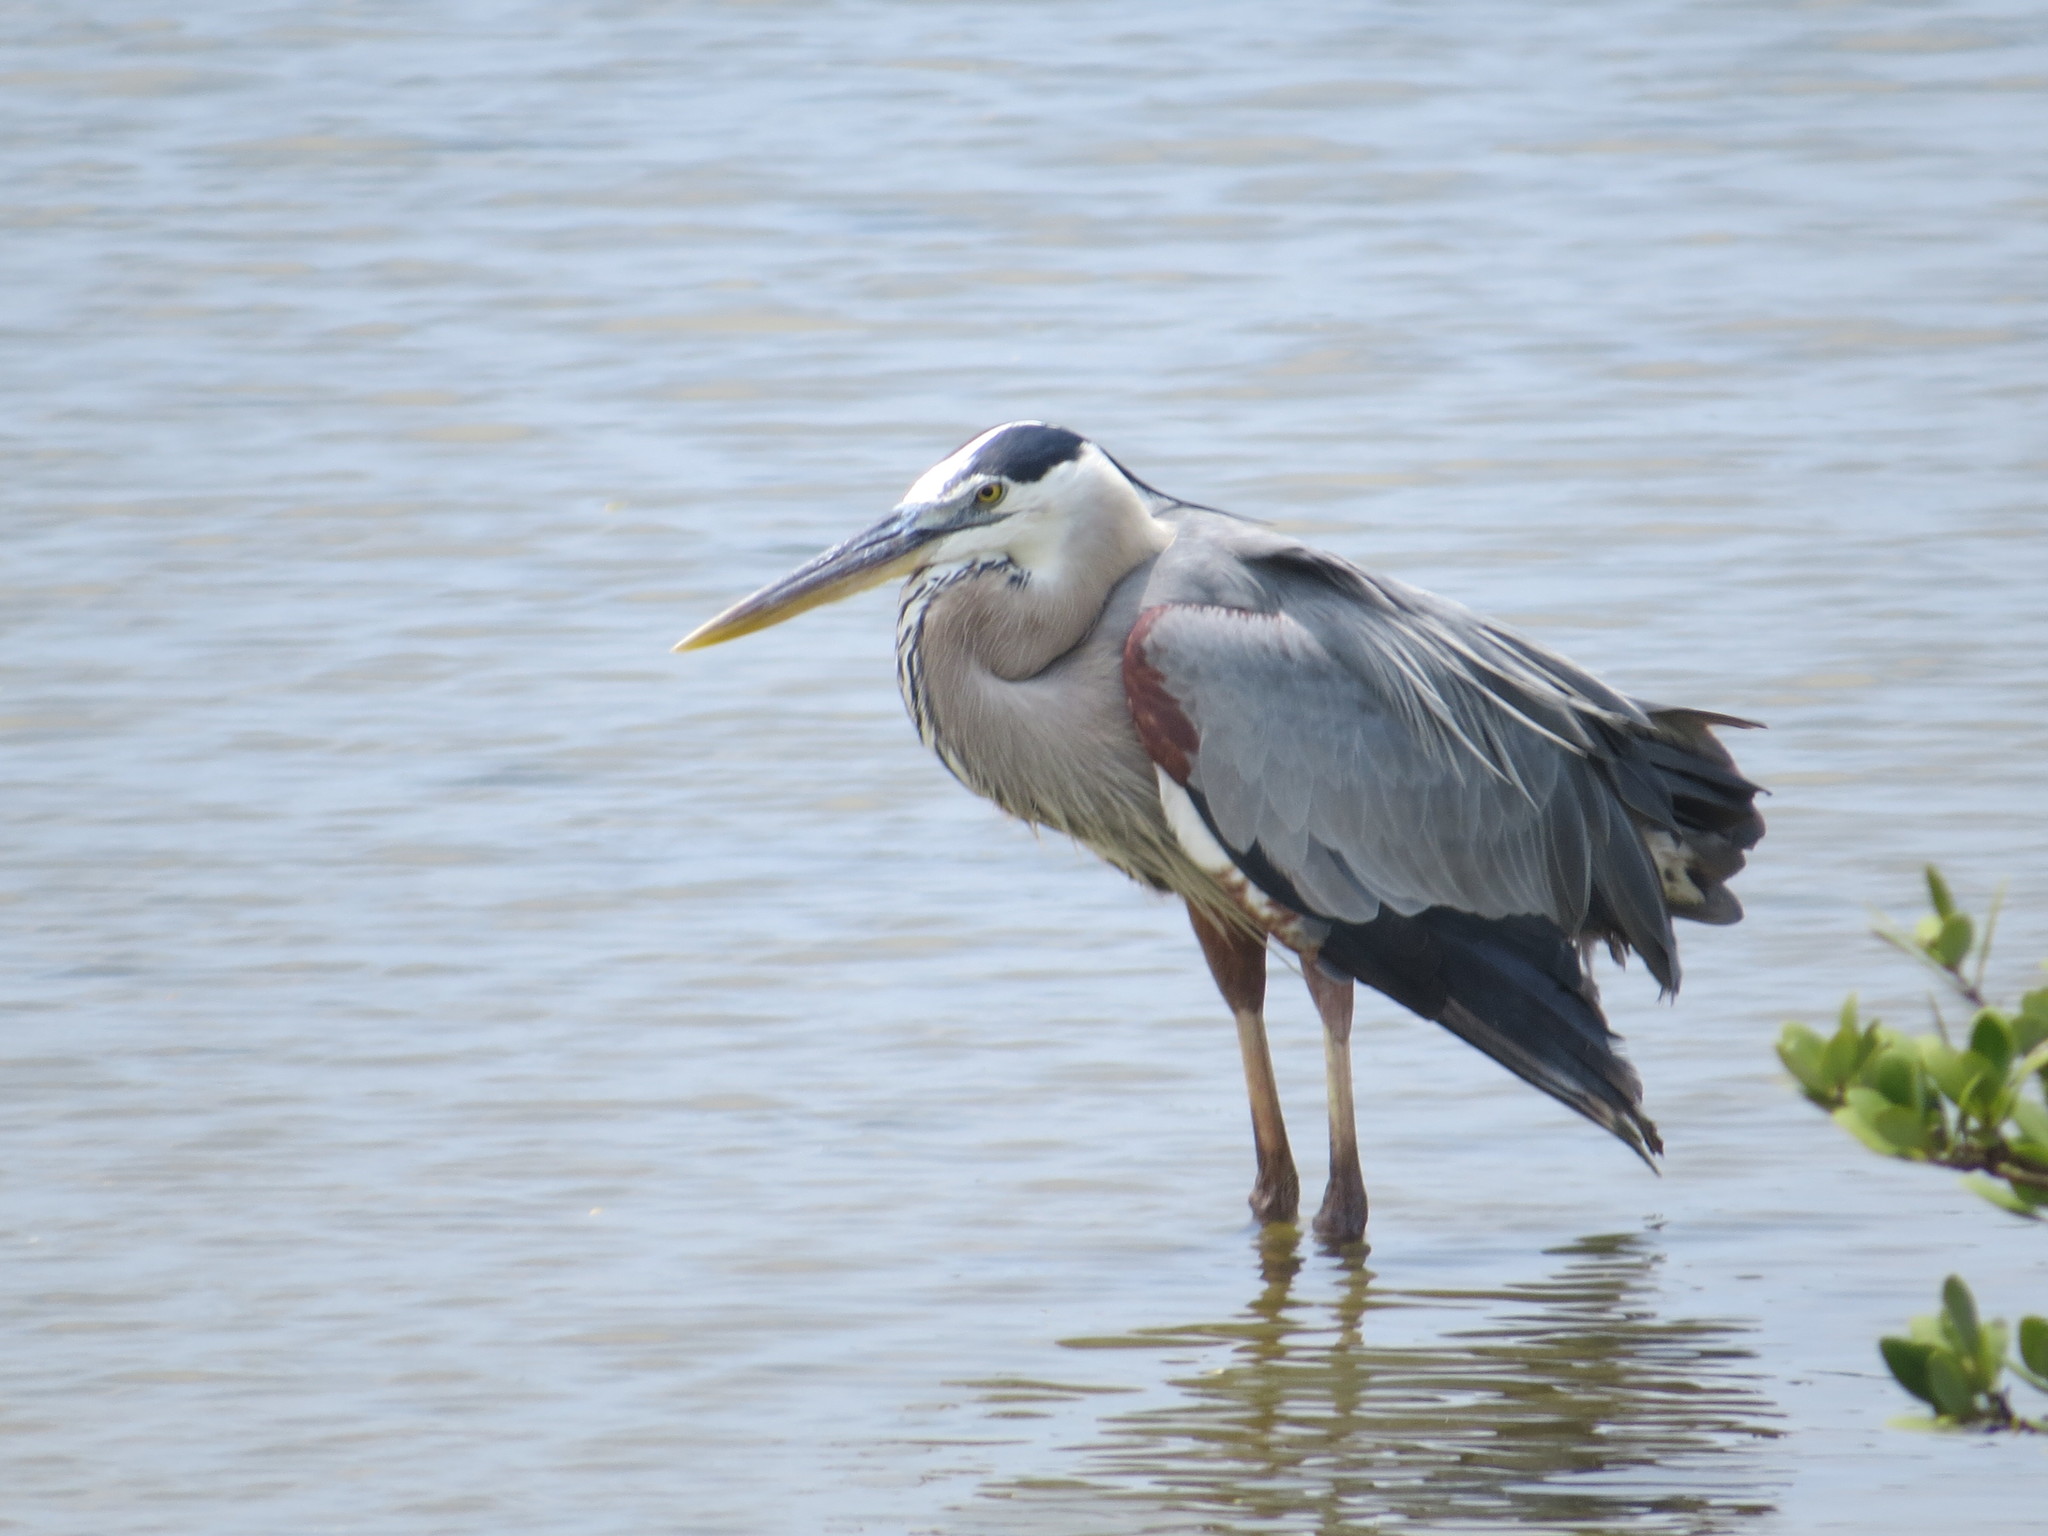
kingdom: Animalia
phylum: Chordata
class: Aves
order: Pelecaniformes
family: Ardeidae
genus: Ardea
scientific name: Ardea herodias
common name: Great blue heron
